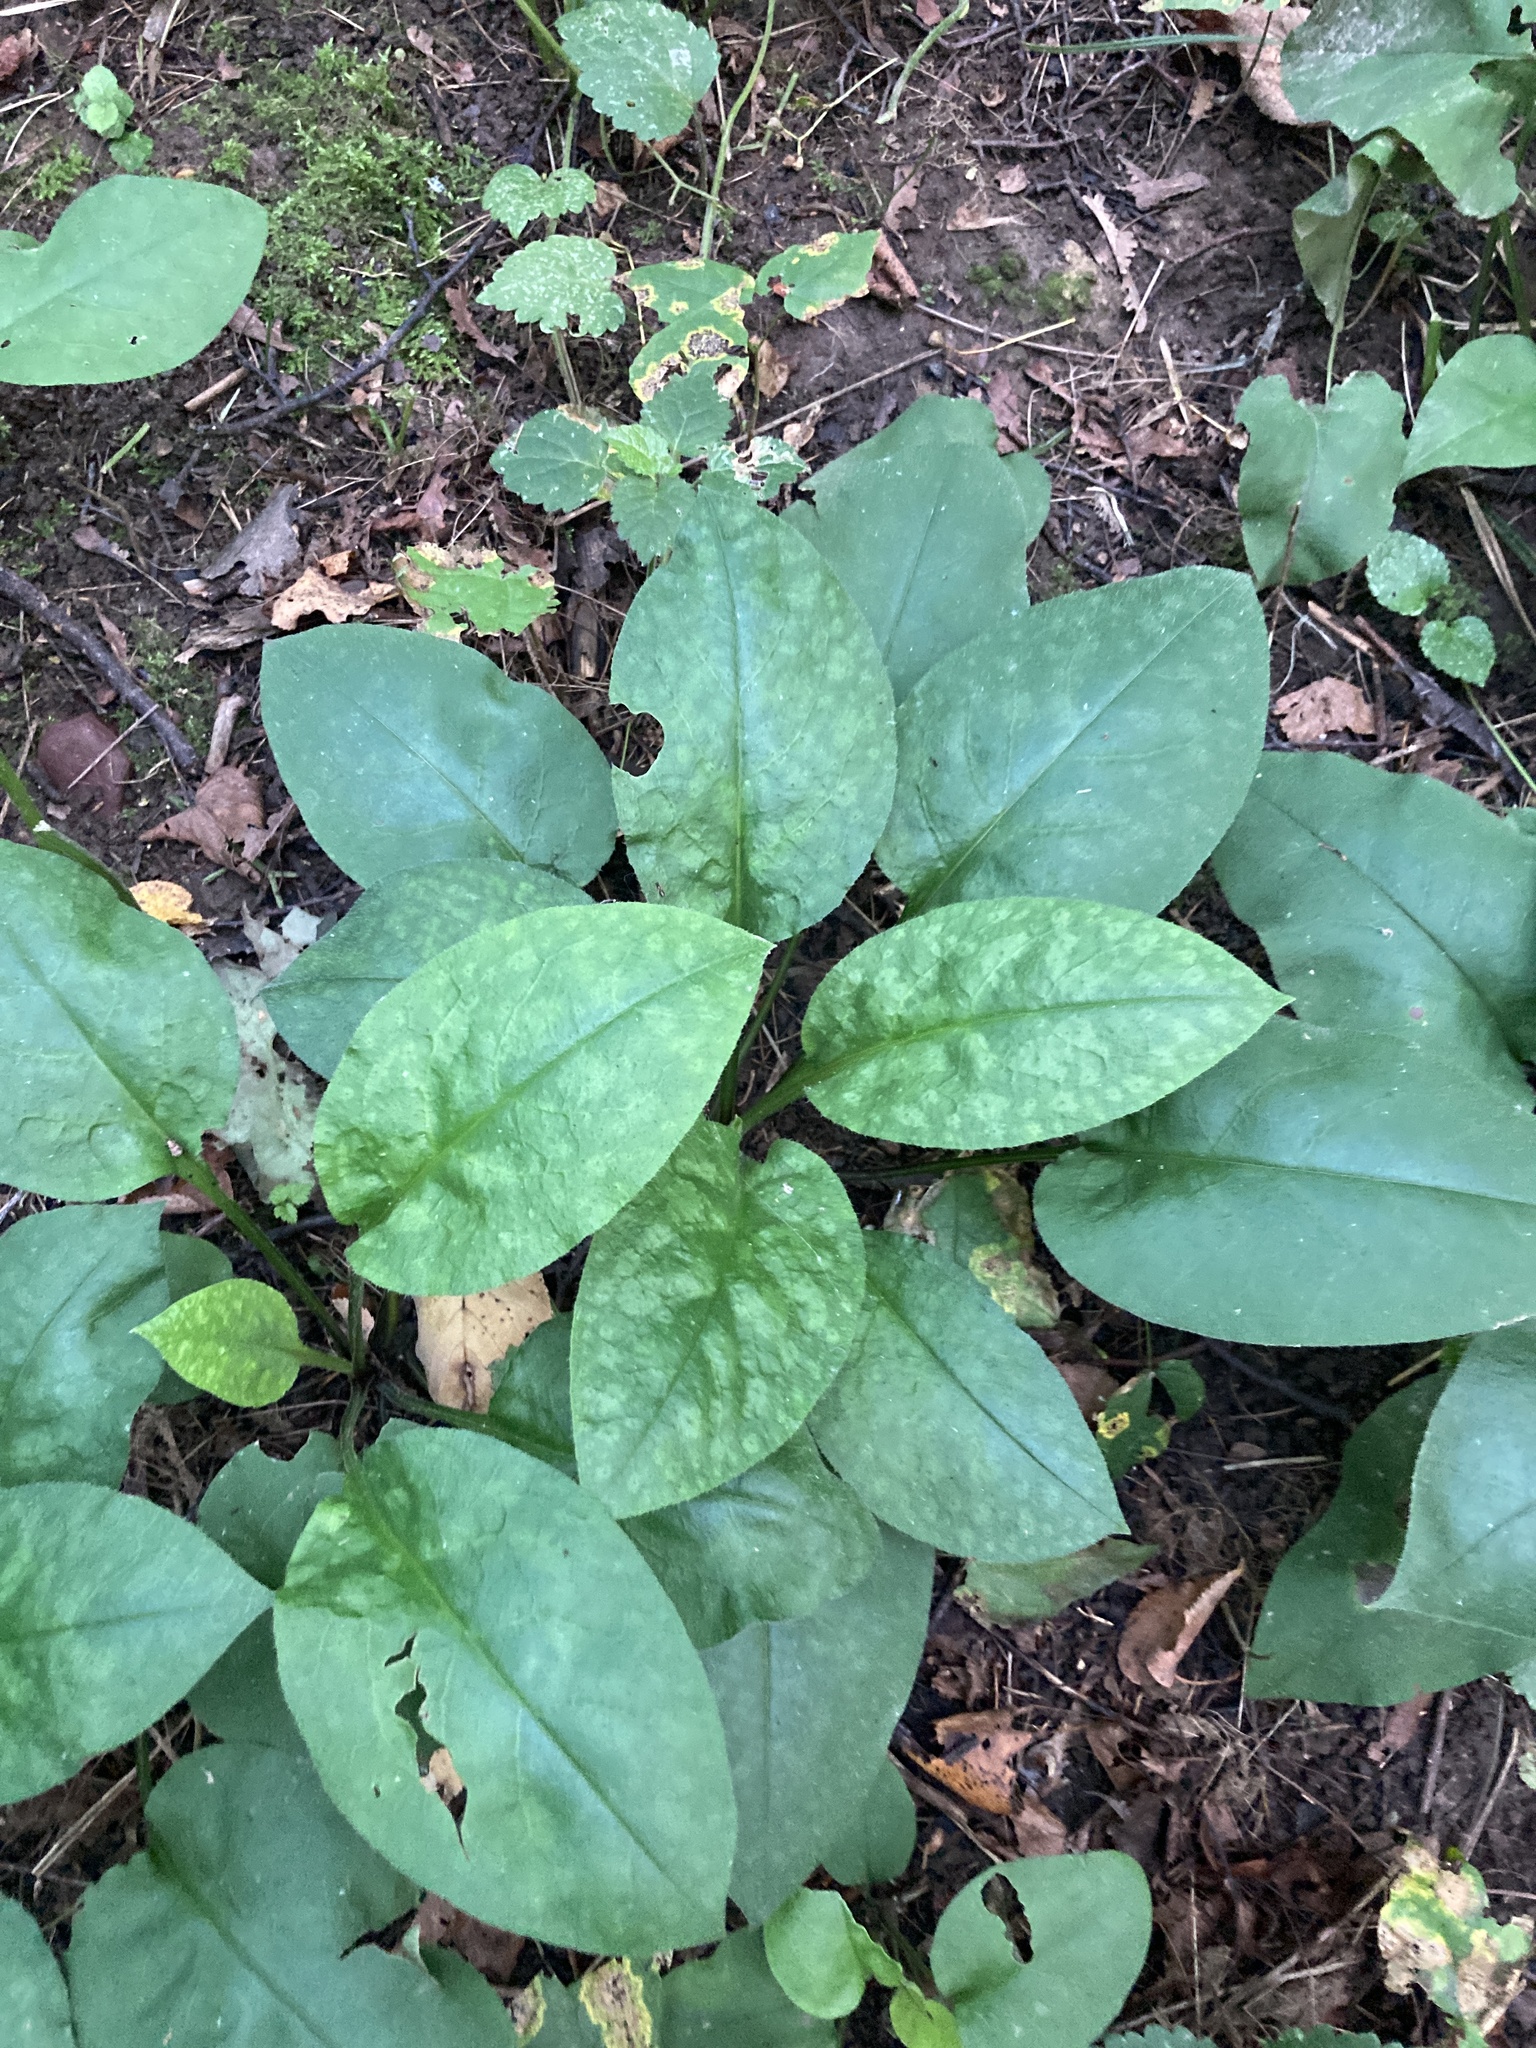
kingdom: Plantae
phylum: Tracheophyta
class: Magnoliopsida
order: Boraginales
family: Boraginaceae
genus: Pulmonaria
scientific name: Pulmonaria obscura
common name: Suffolk lungwort
